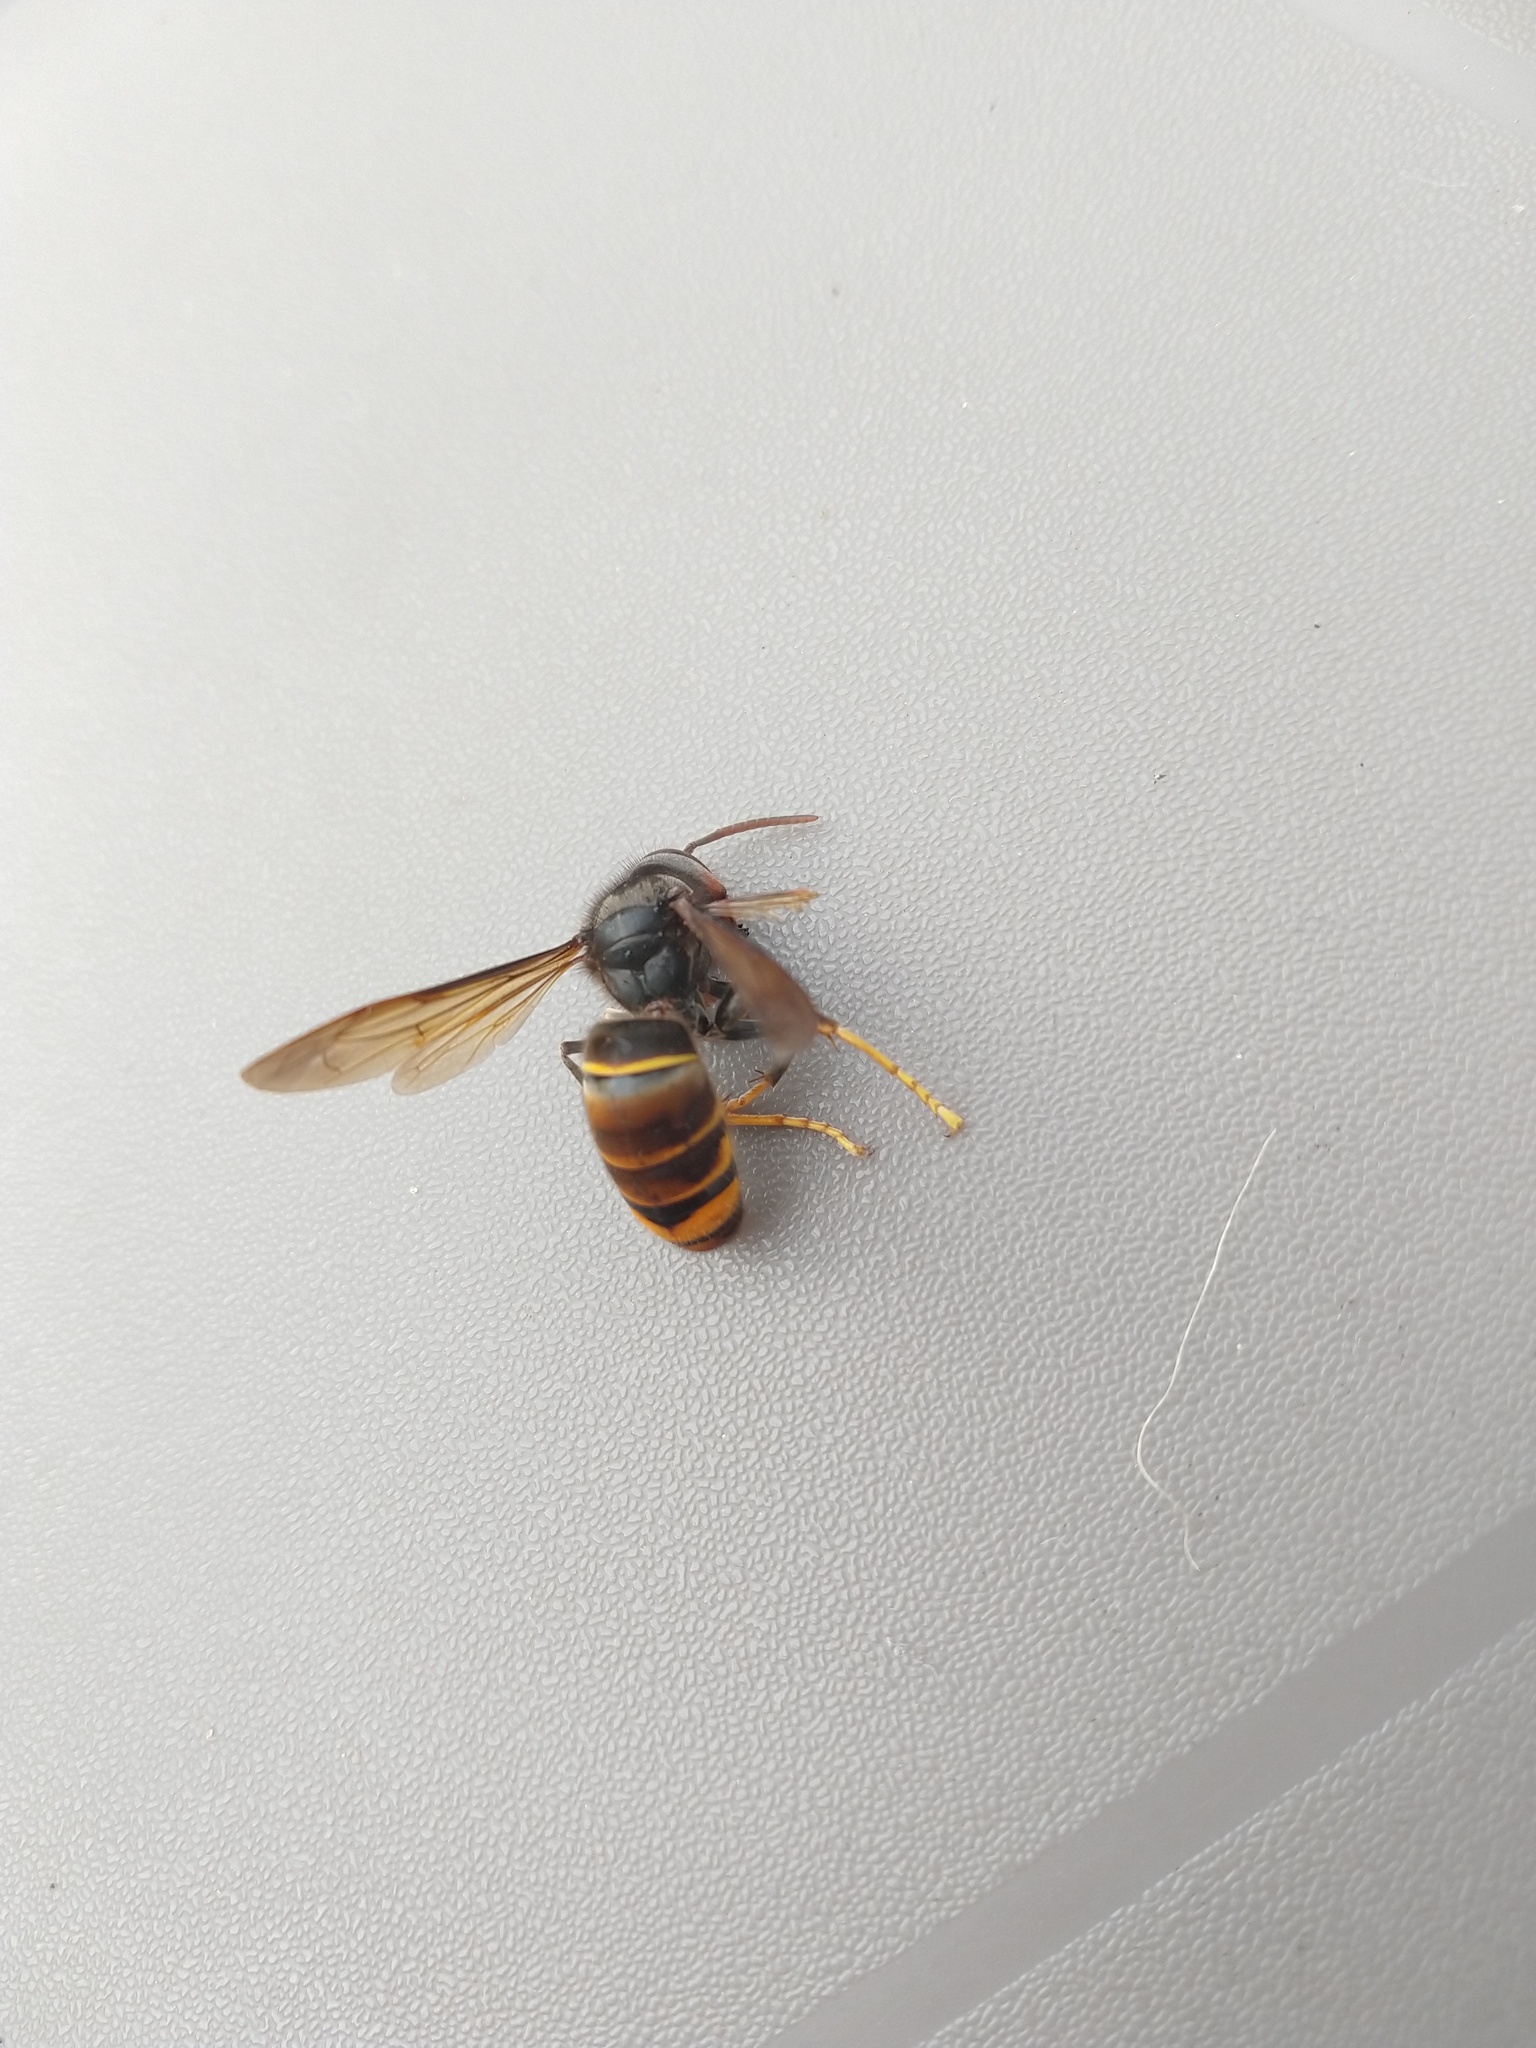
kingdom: Animalia
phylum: Arthropoda
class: Insecta
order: Hymenoptera
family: Vespidae
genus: Vespa
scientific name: Vespa velutina
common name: Asian hornet
